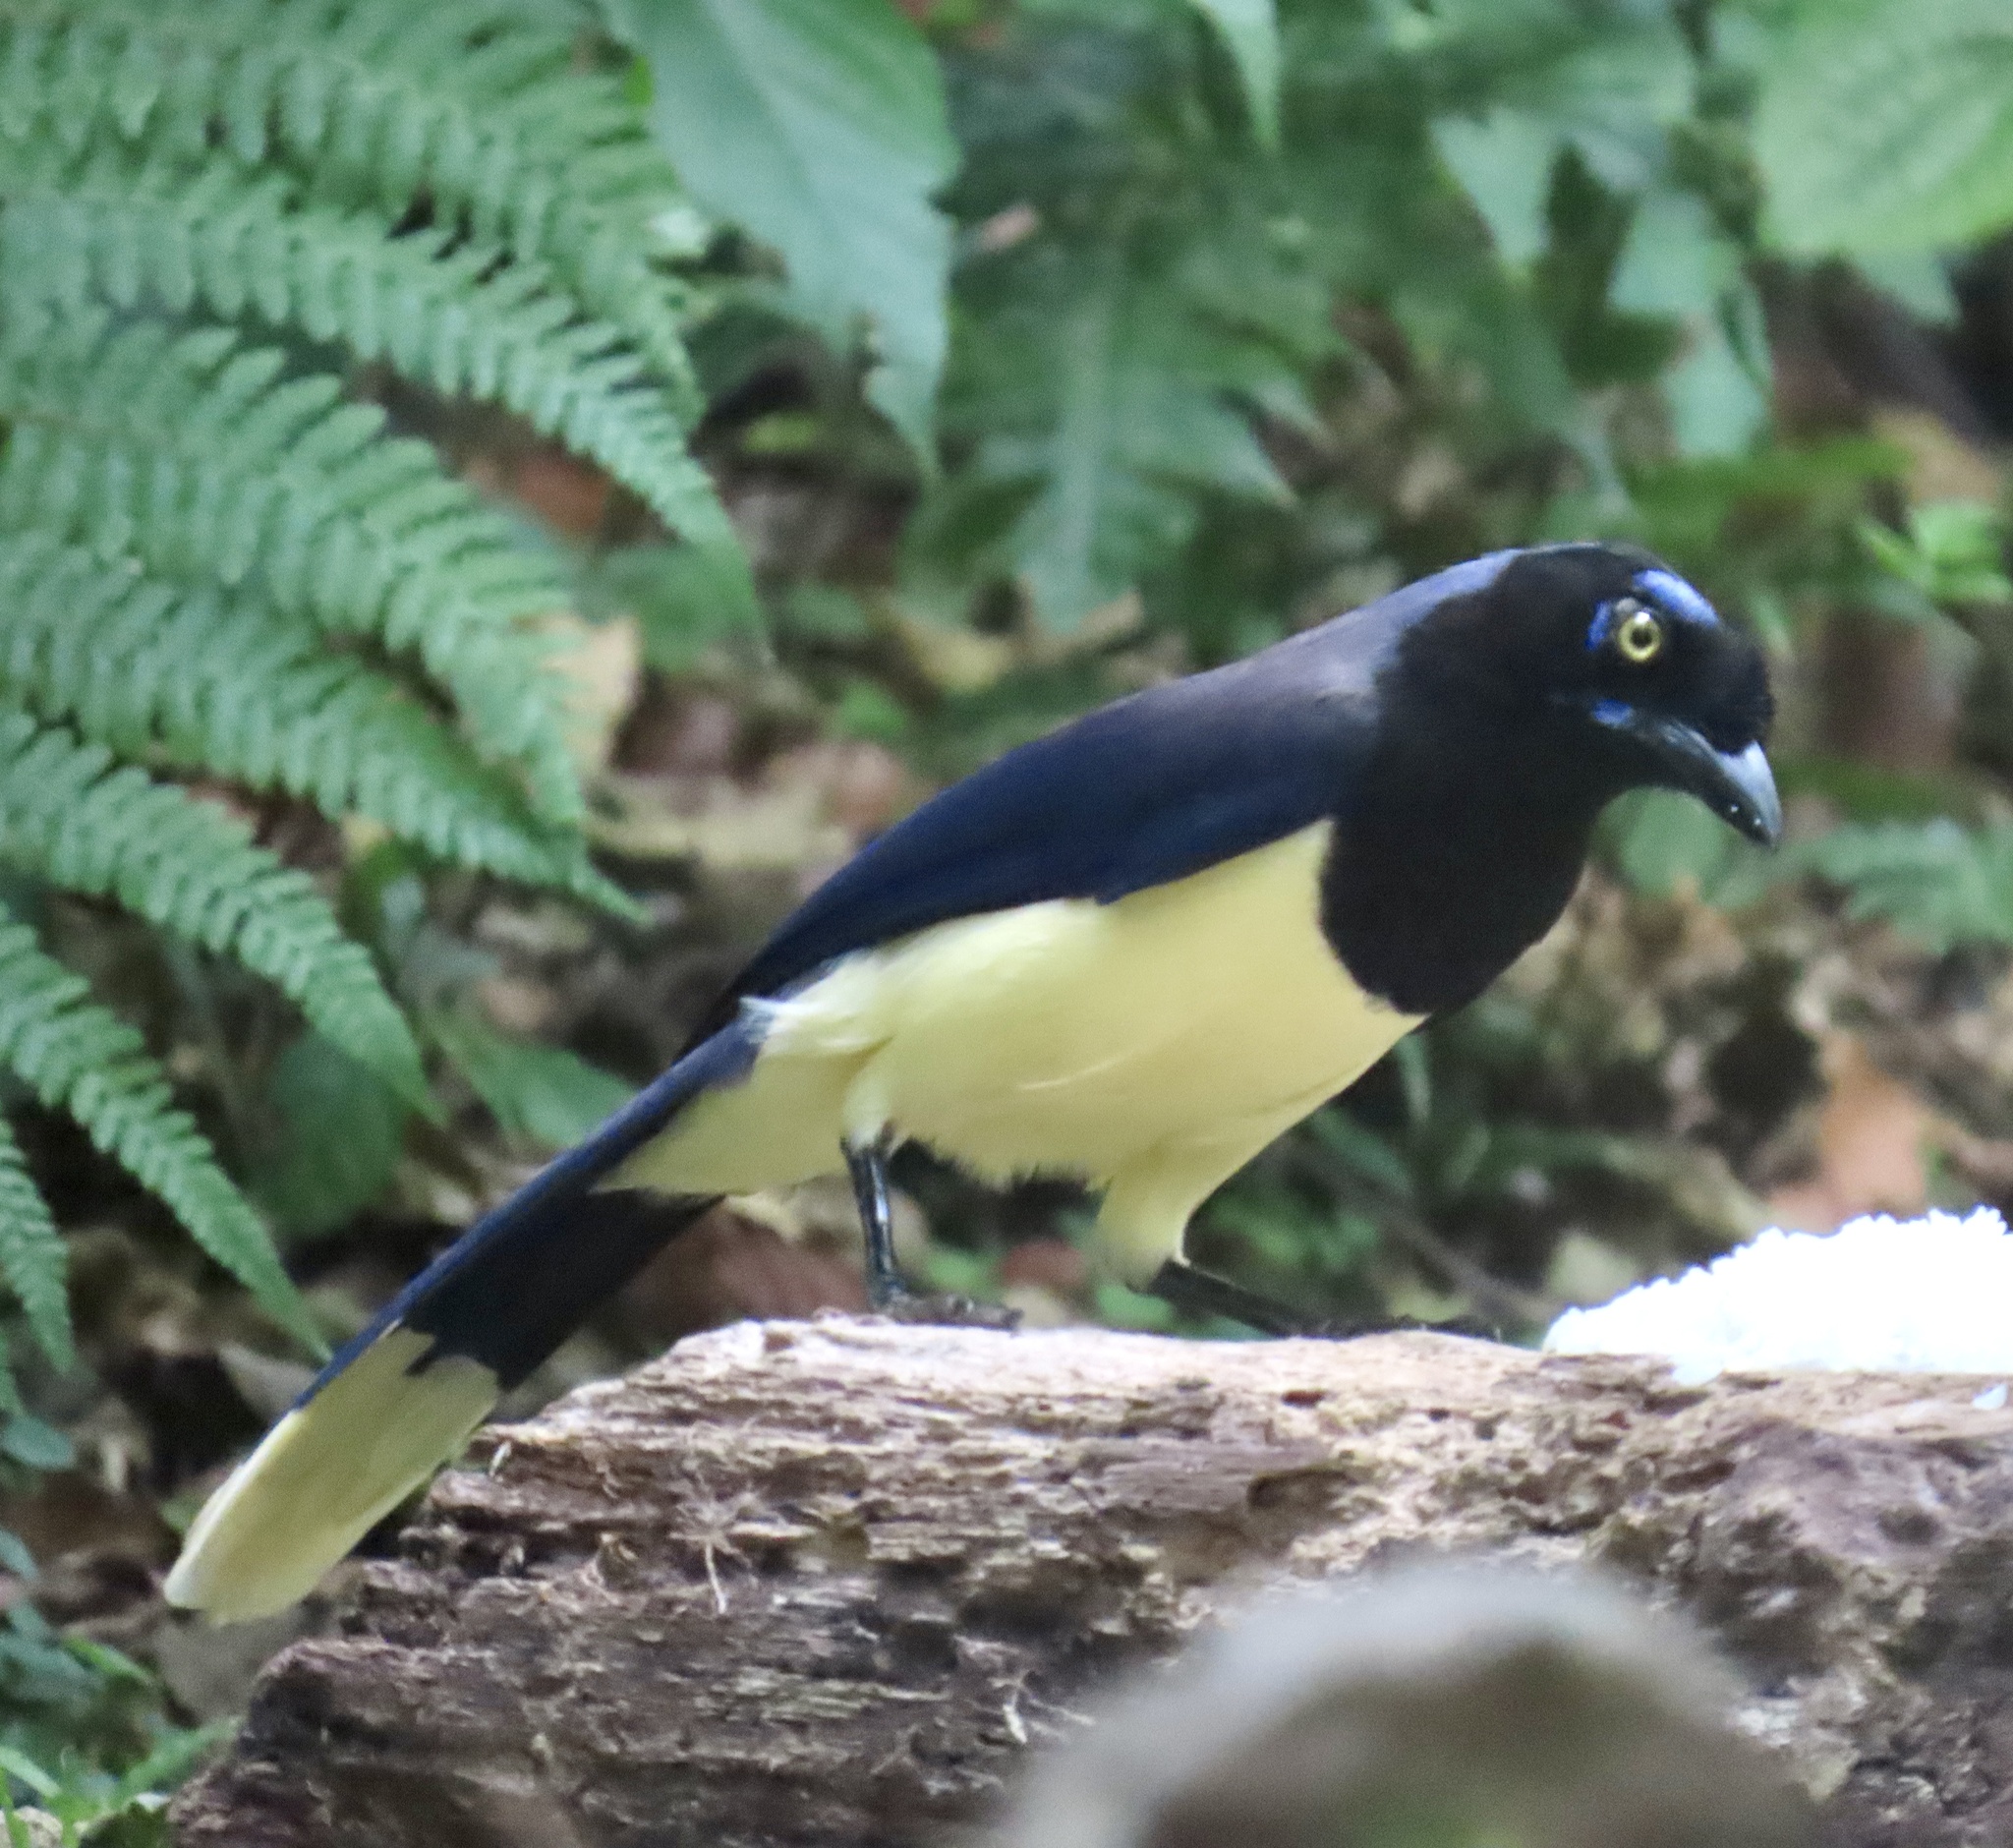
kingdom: Animalia
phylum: Chordata
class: Aves
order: Passeriformes
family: Corvidae
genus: Cyanocorax
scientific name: Cyanocorax affinis
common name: Black-chested jay
